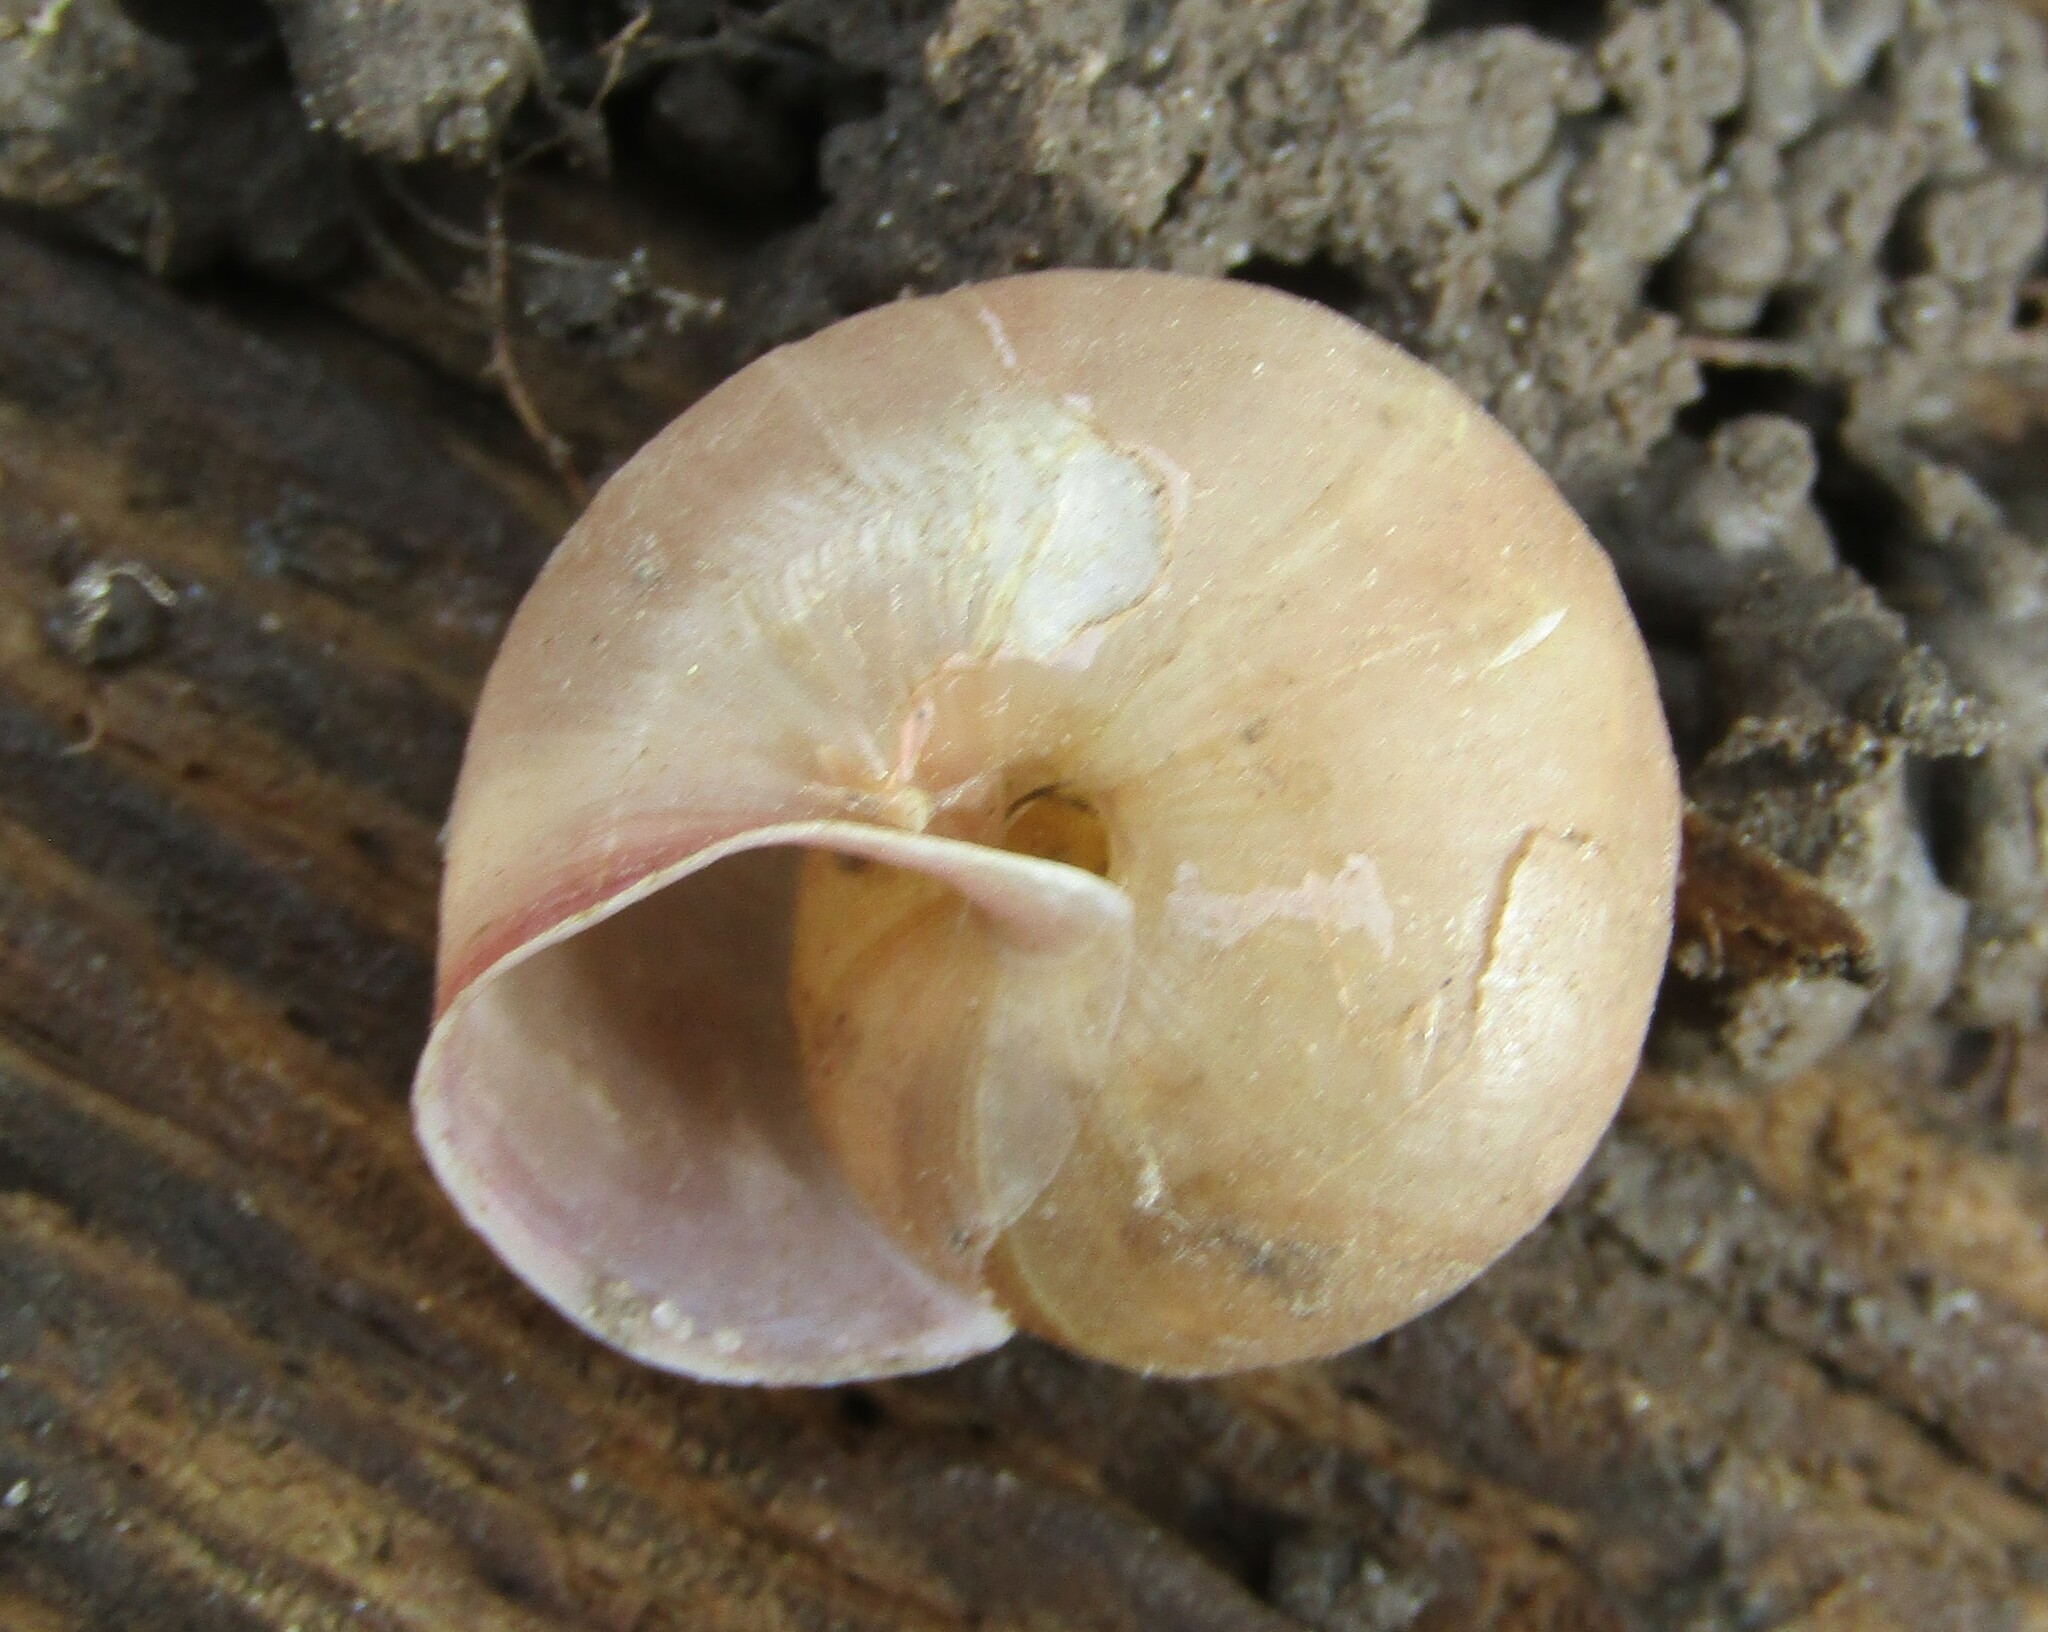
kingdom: Animalia
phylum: Mollusca
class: Gastropoda
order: Stylommatophora
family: Camaenidae
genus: Fruticicola
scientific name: Fruticicola fruticum
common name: Bush snail
